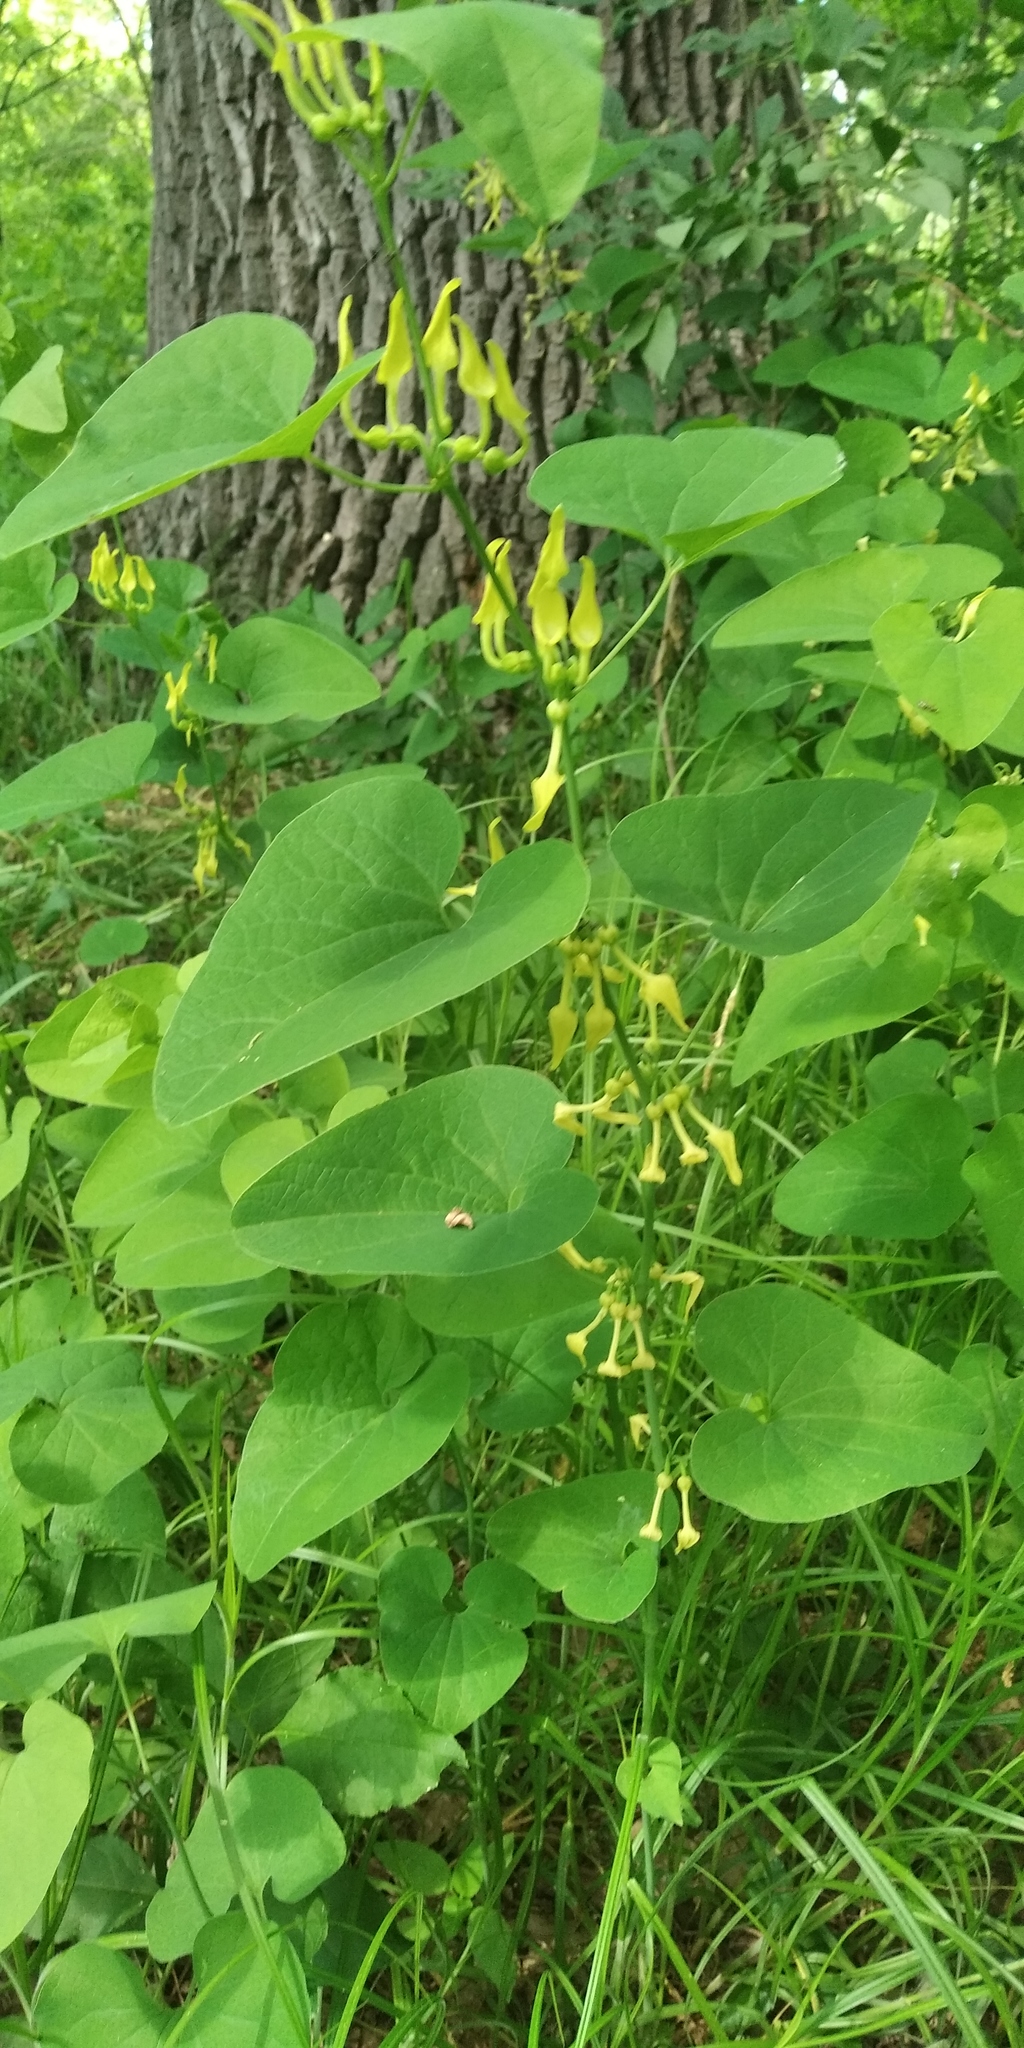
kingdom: Plantae
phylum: Tracheophyta
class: Magnoliopsida
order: Piperales
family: Aristolochiaceae
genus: Aristolochia
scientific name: Aristolochia clematitis
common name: Birthwort
